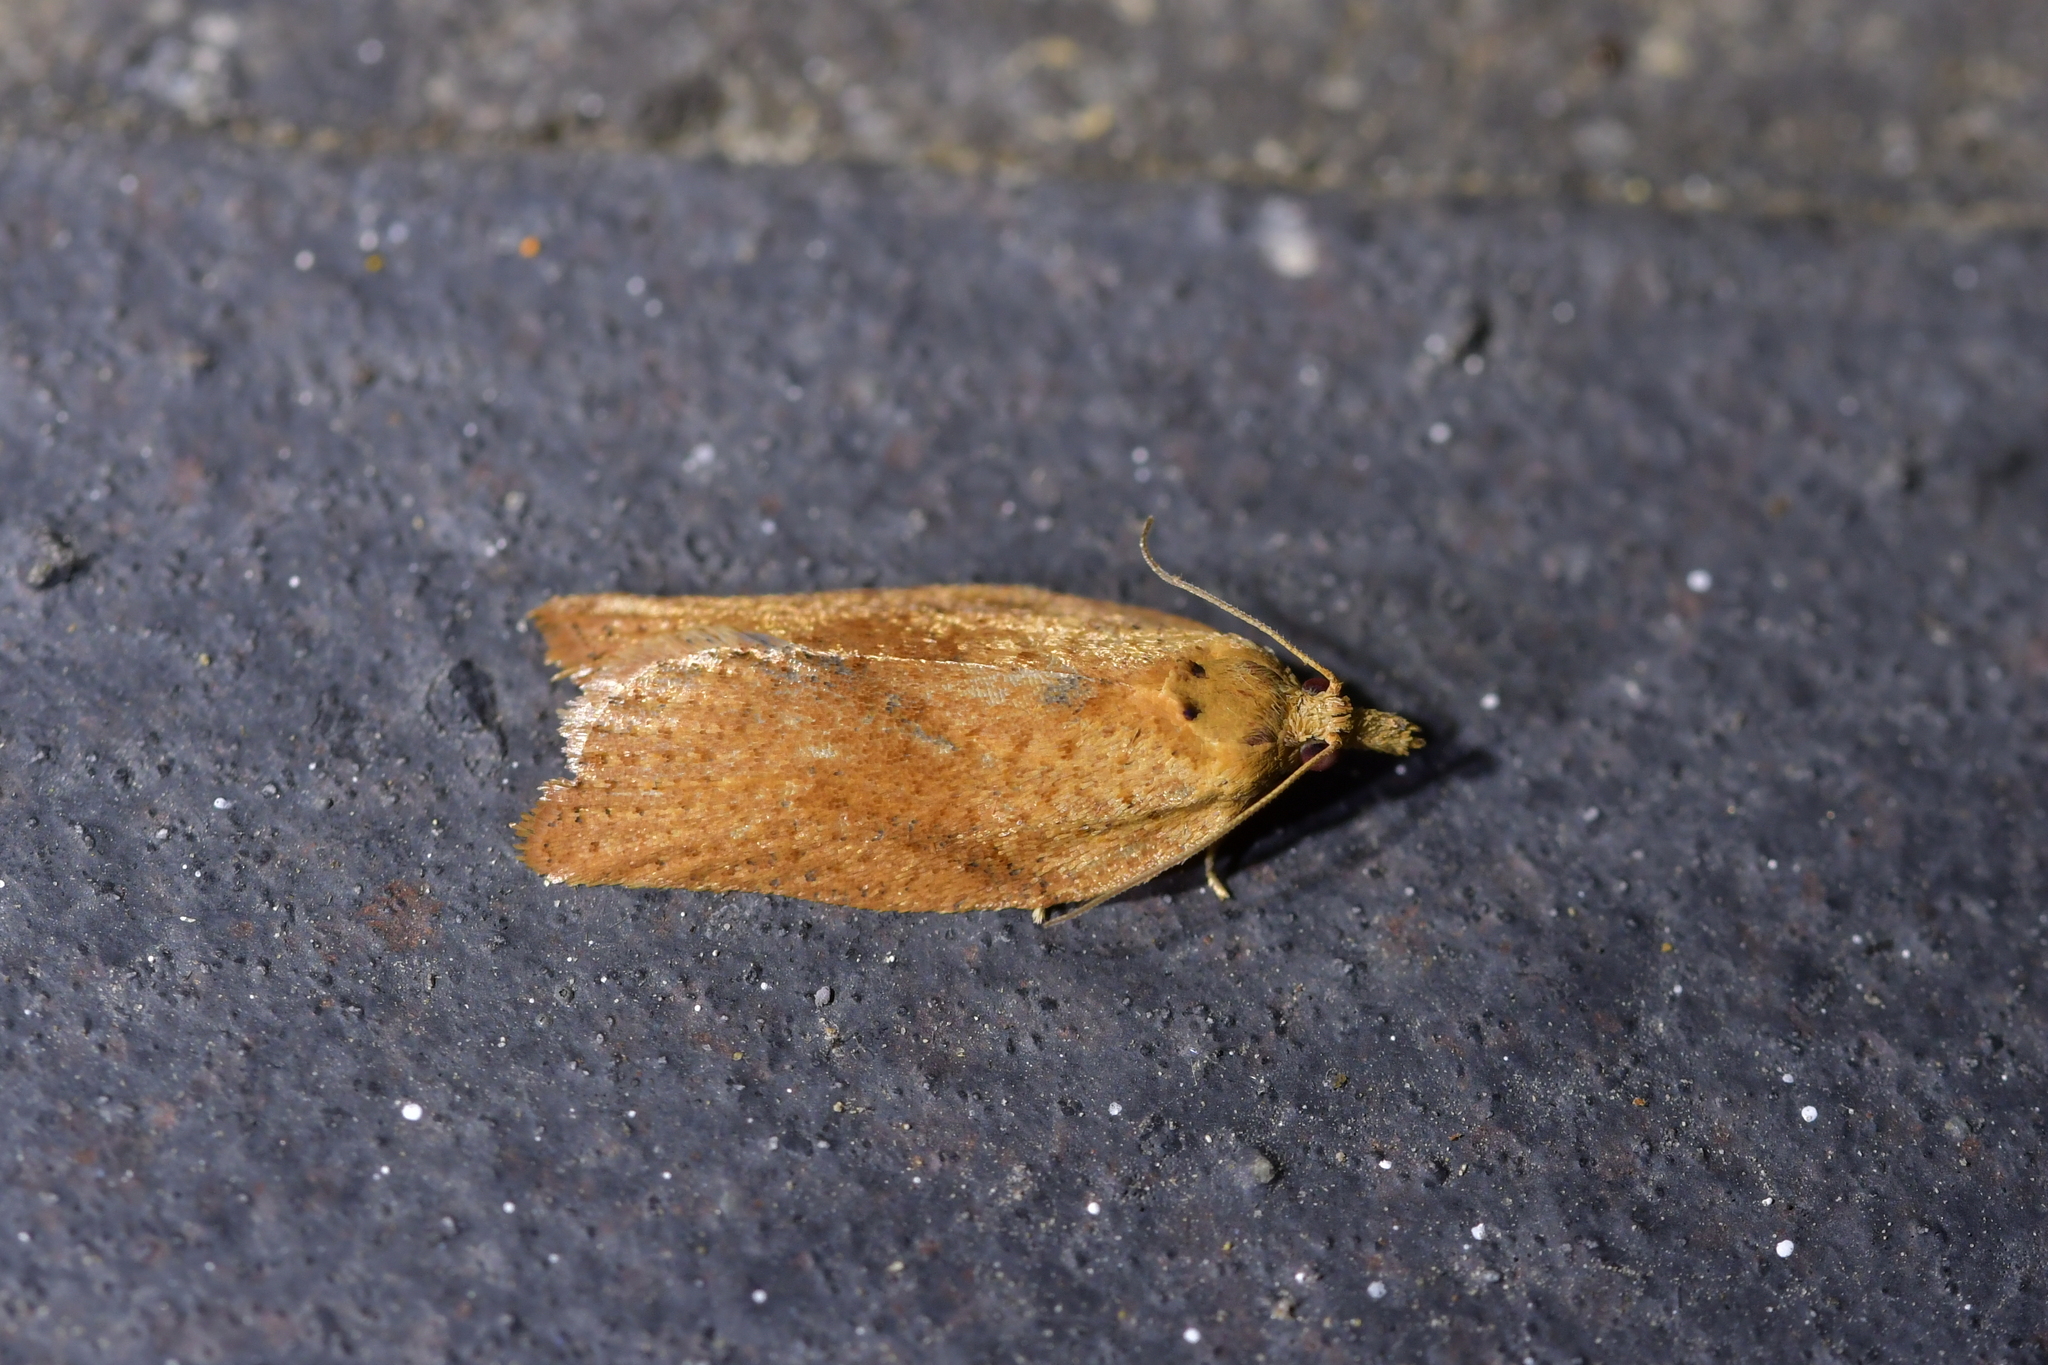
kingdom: Animalia
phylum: Arthropoda
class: Insecta
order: Lepidoptera
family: Tortricidae
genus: Epiphyas
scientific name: Epiphyas postvittana
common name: Light brown apple moth
